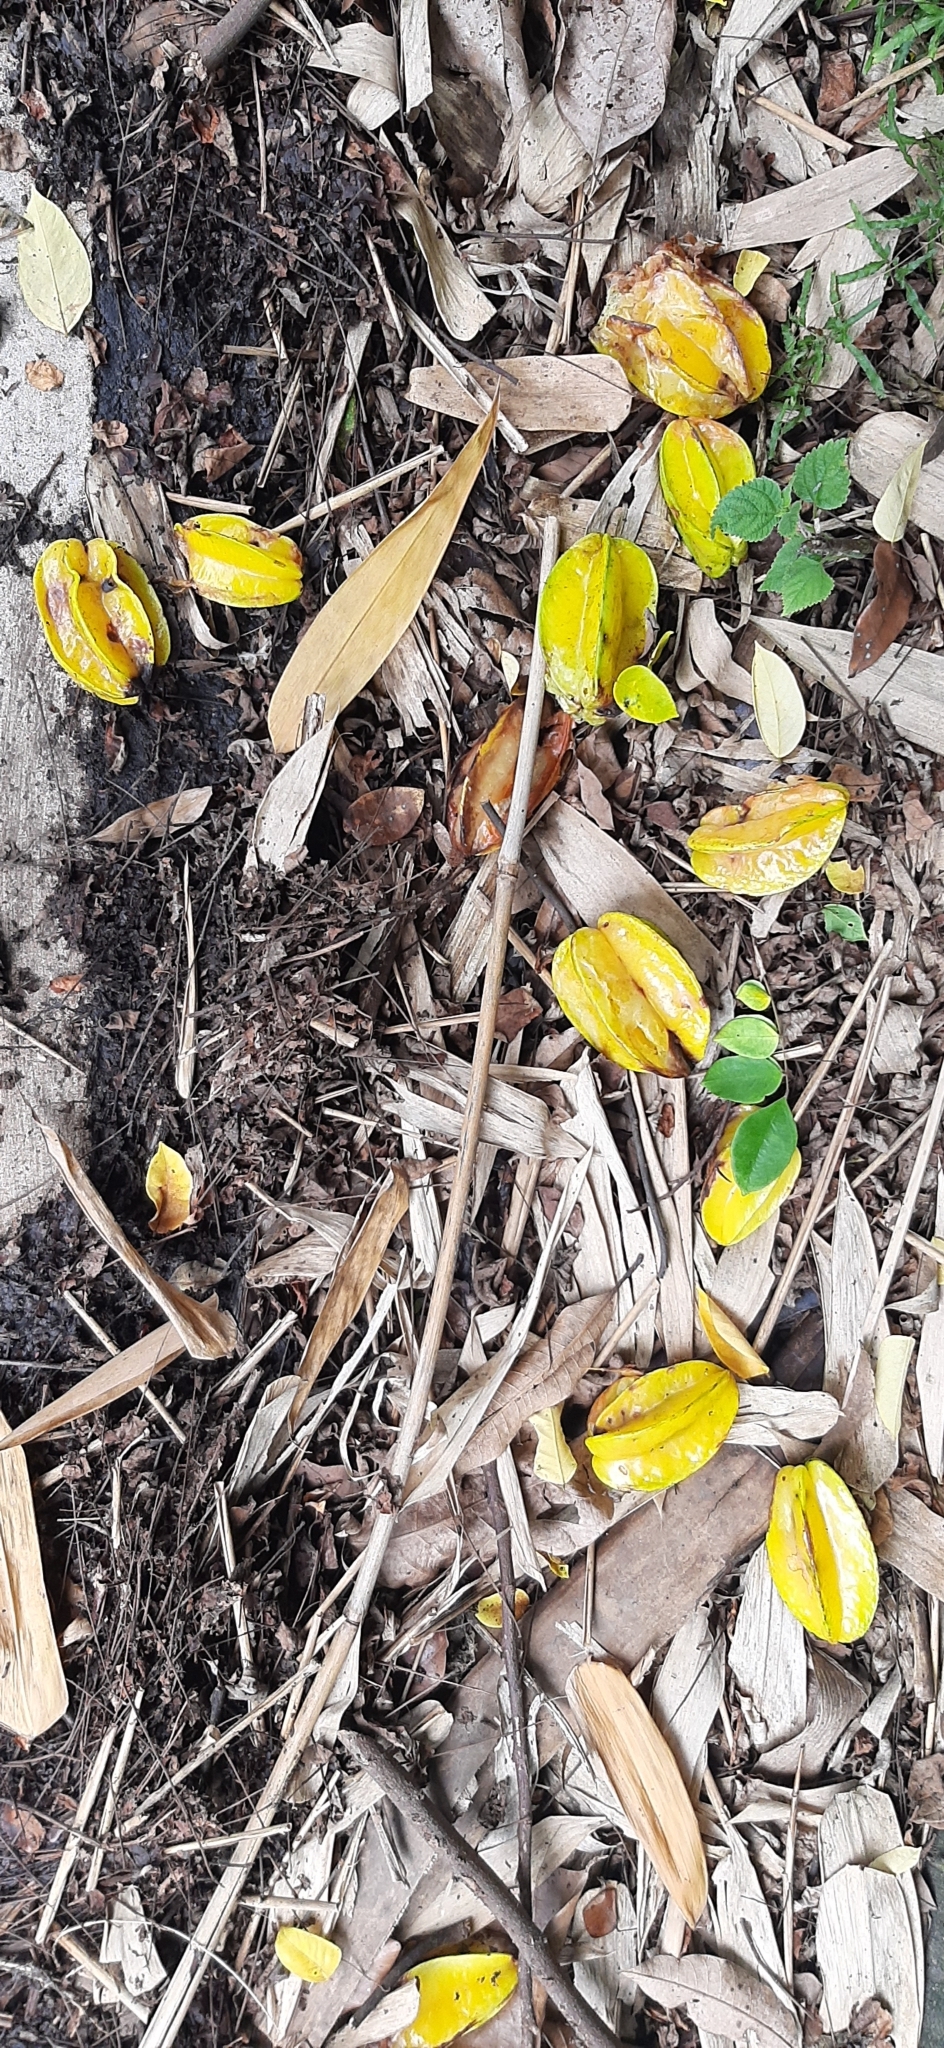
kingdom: Plantae
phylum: Tracheophyta
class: Magnoliopsida
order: Oxalidales
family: Oxalidaceae
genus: Averrhoa
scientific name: Averrhoa carambola
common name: Blimbing
